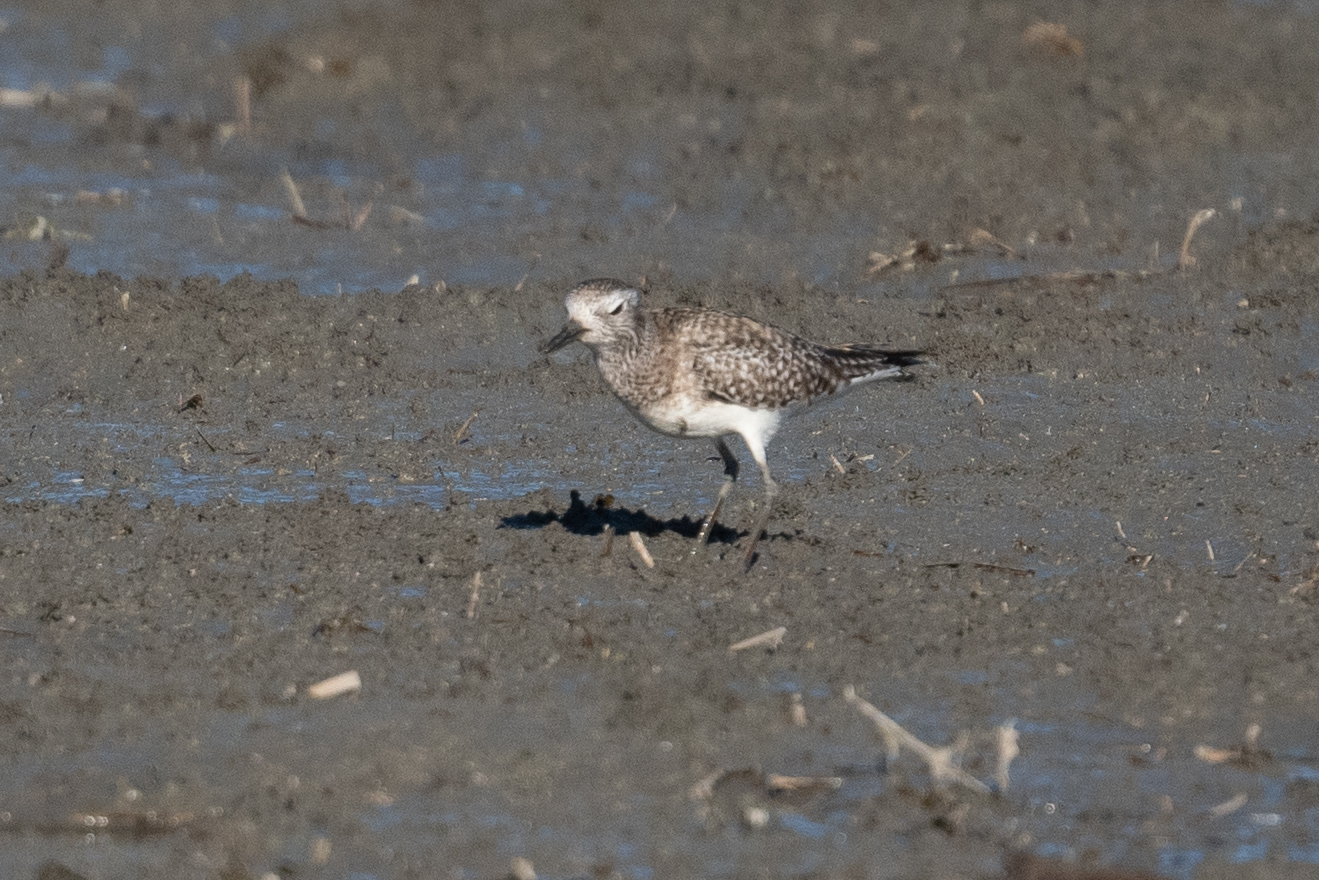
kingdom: Animalia
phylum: Chordata
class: Aves
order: Charadriiformes
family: Charadriidae
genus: Pluvialis
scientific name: Pluvialis squatarola
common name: Grey plover
